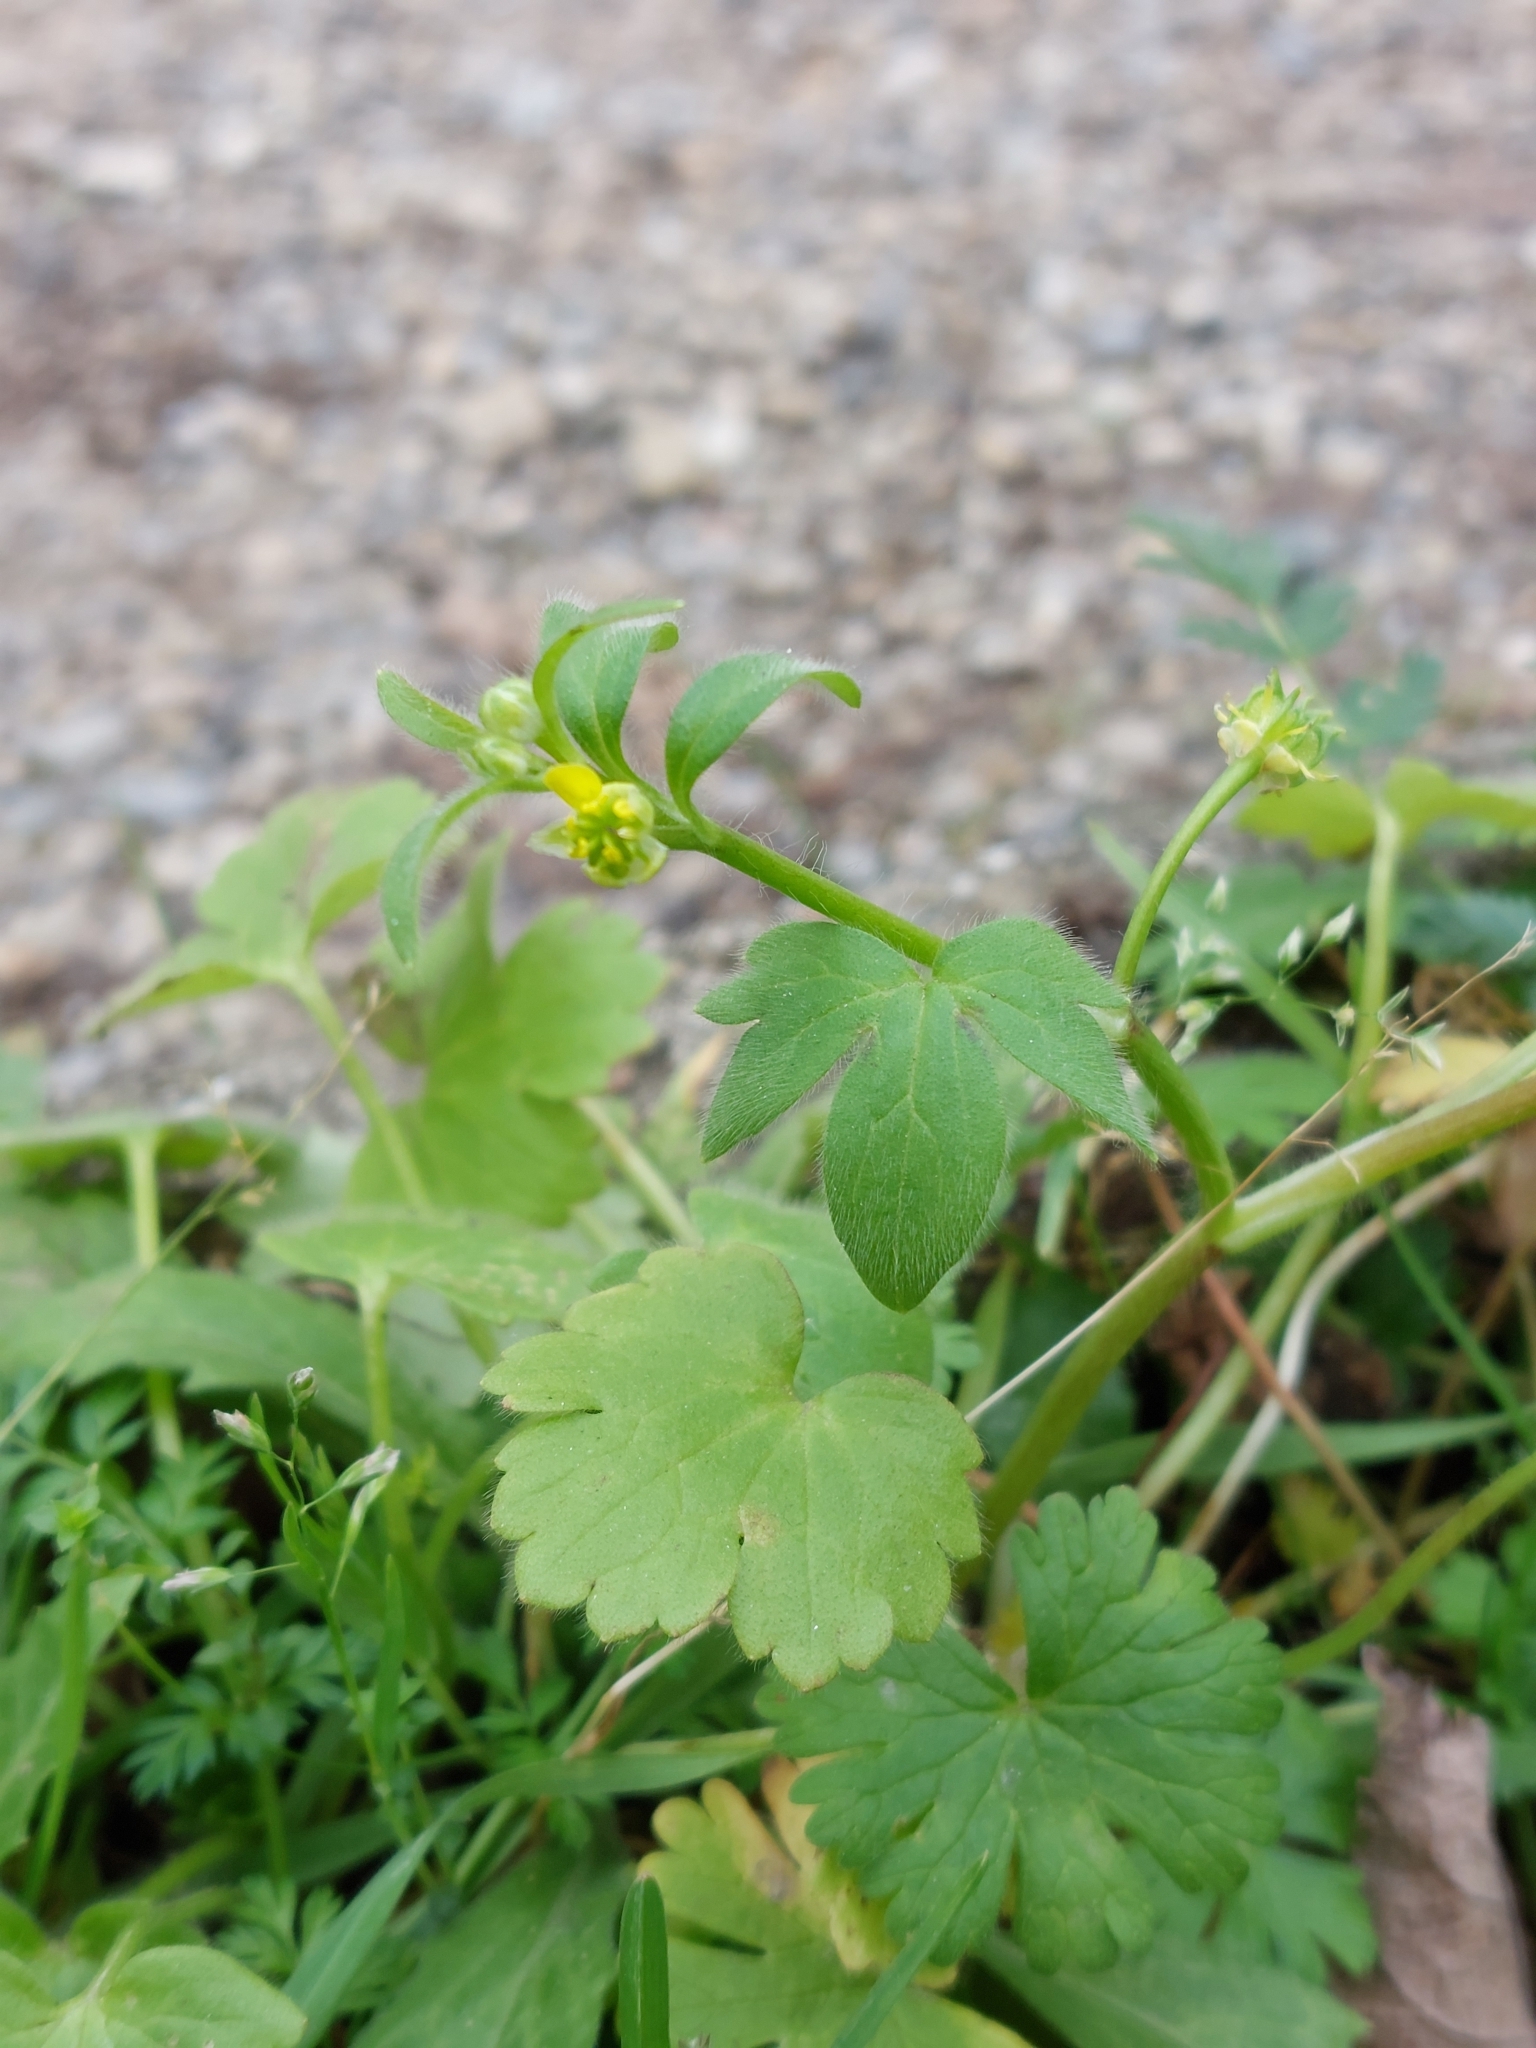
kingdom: Plantae
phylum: Tracheophyta
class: Magnoliopsida
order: Ranunculales
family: Ranunculaceae
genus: Ranunculus
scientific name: Ranunculus parviflorus
